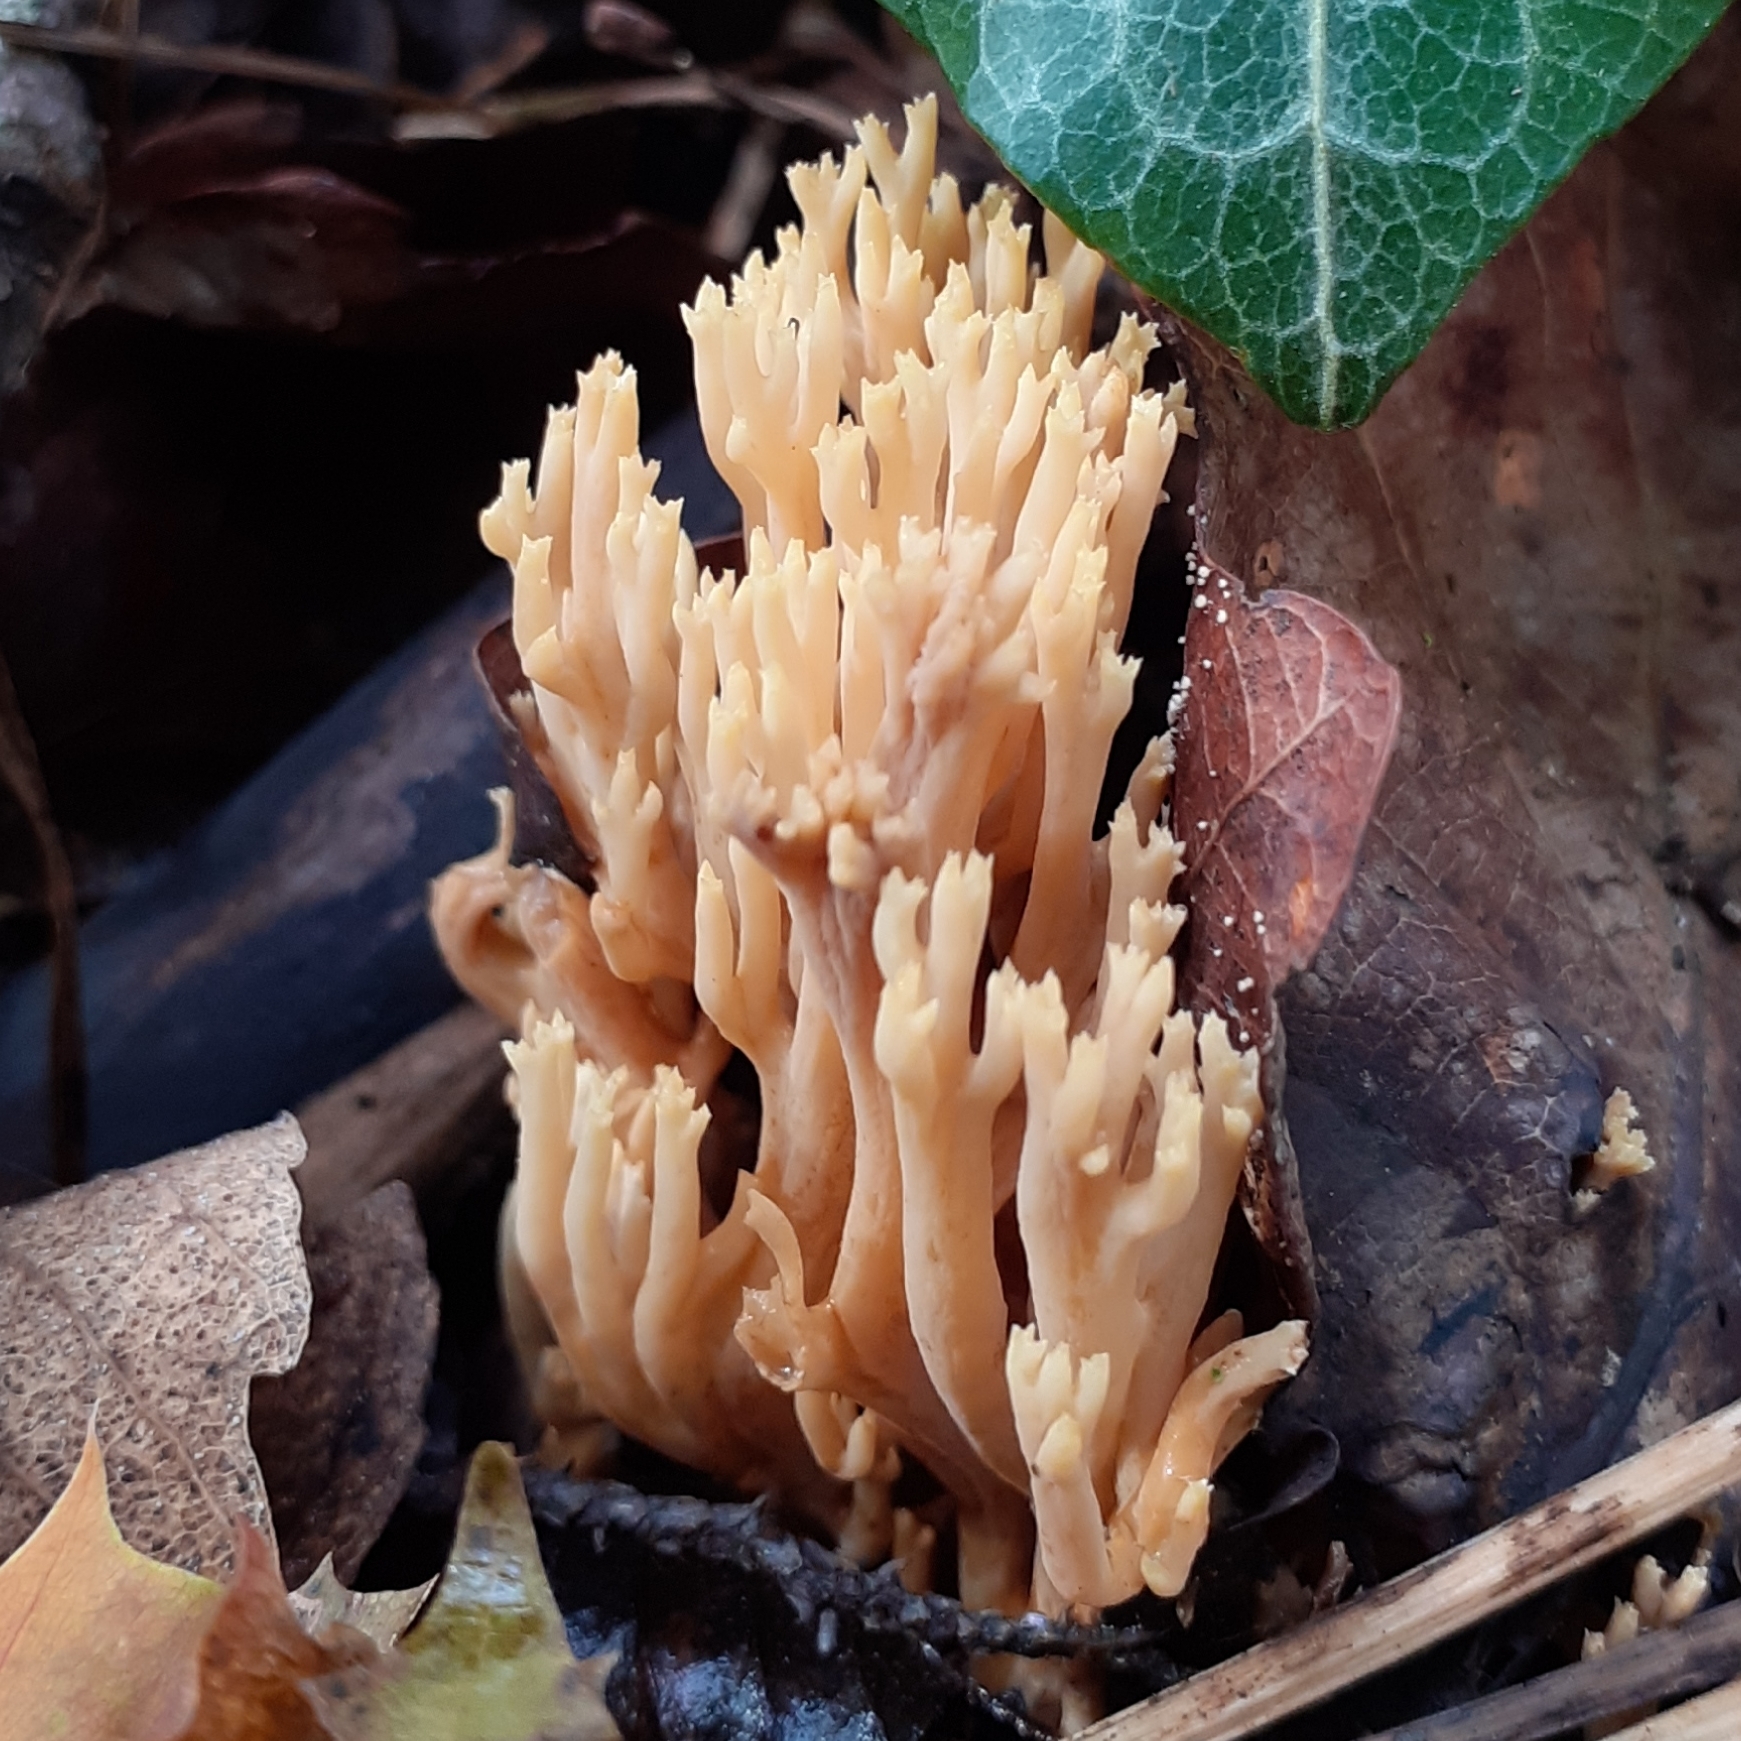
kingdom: Fungi
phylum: Basidiomycota
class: Agaricomycetes
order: Gomphales
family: Gomphaceae
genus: Ramaria
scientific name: Ramaria stricta
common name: Upright coral
